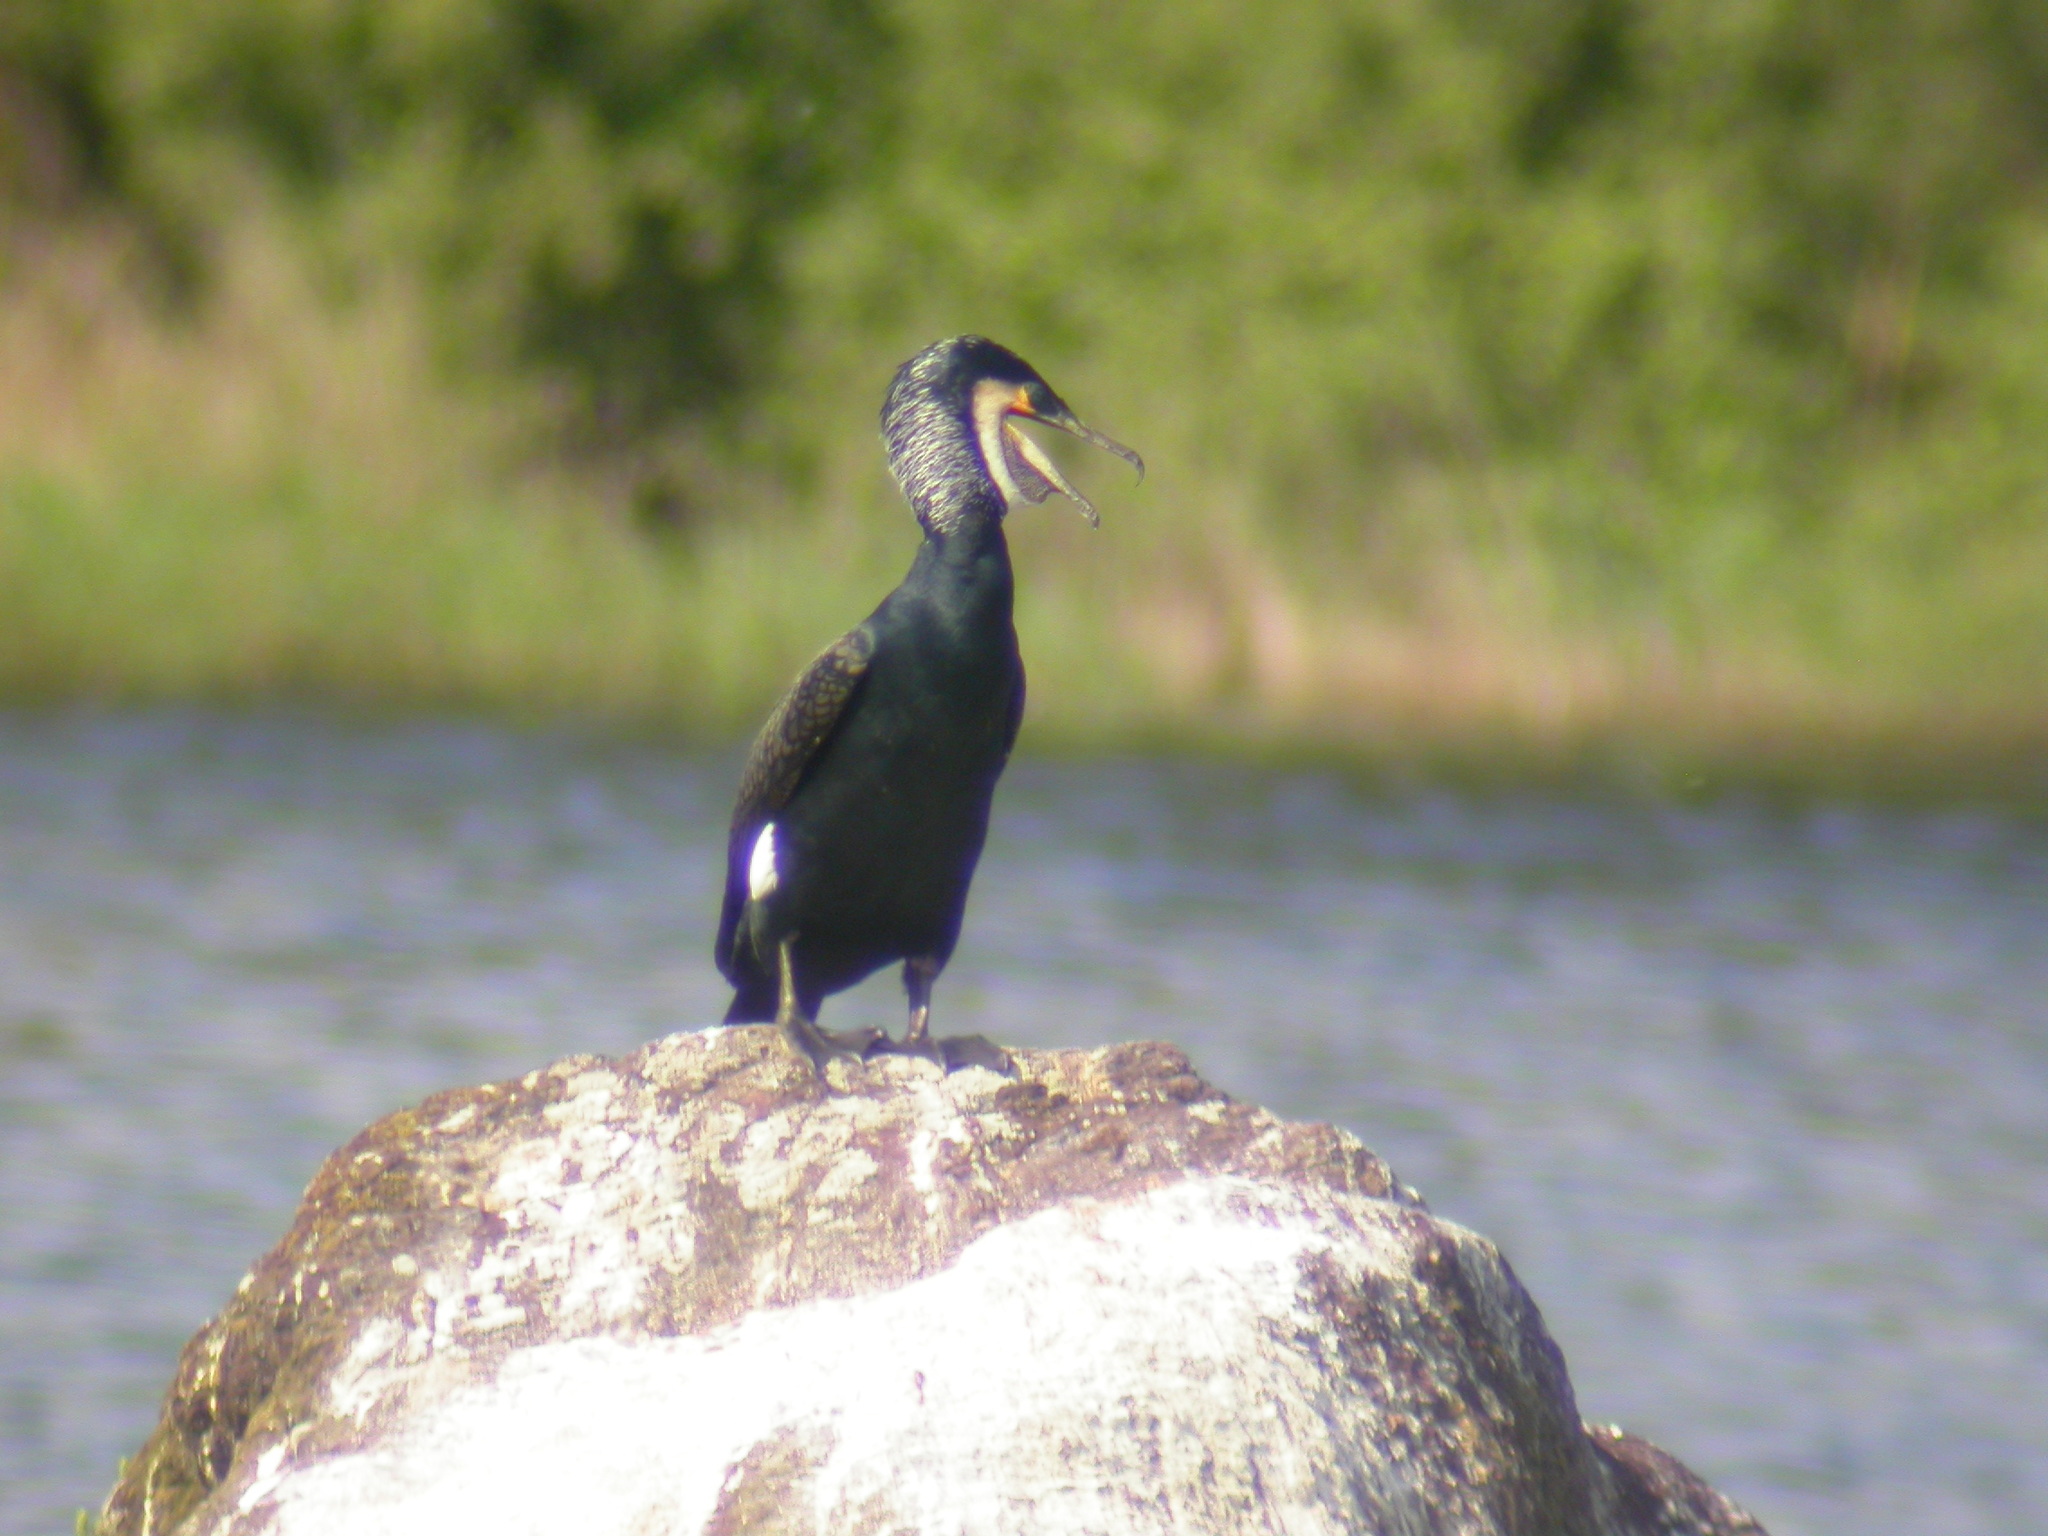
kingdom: Animalia
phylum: Chordata
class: Aves
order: Suliformes
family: Phalacrocoracidae
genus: Phalacrocorax
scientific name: Phalacrocorax carbo
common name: Great cormorant
